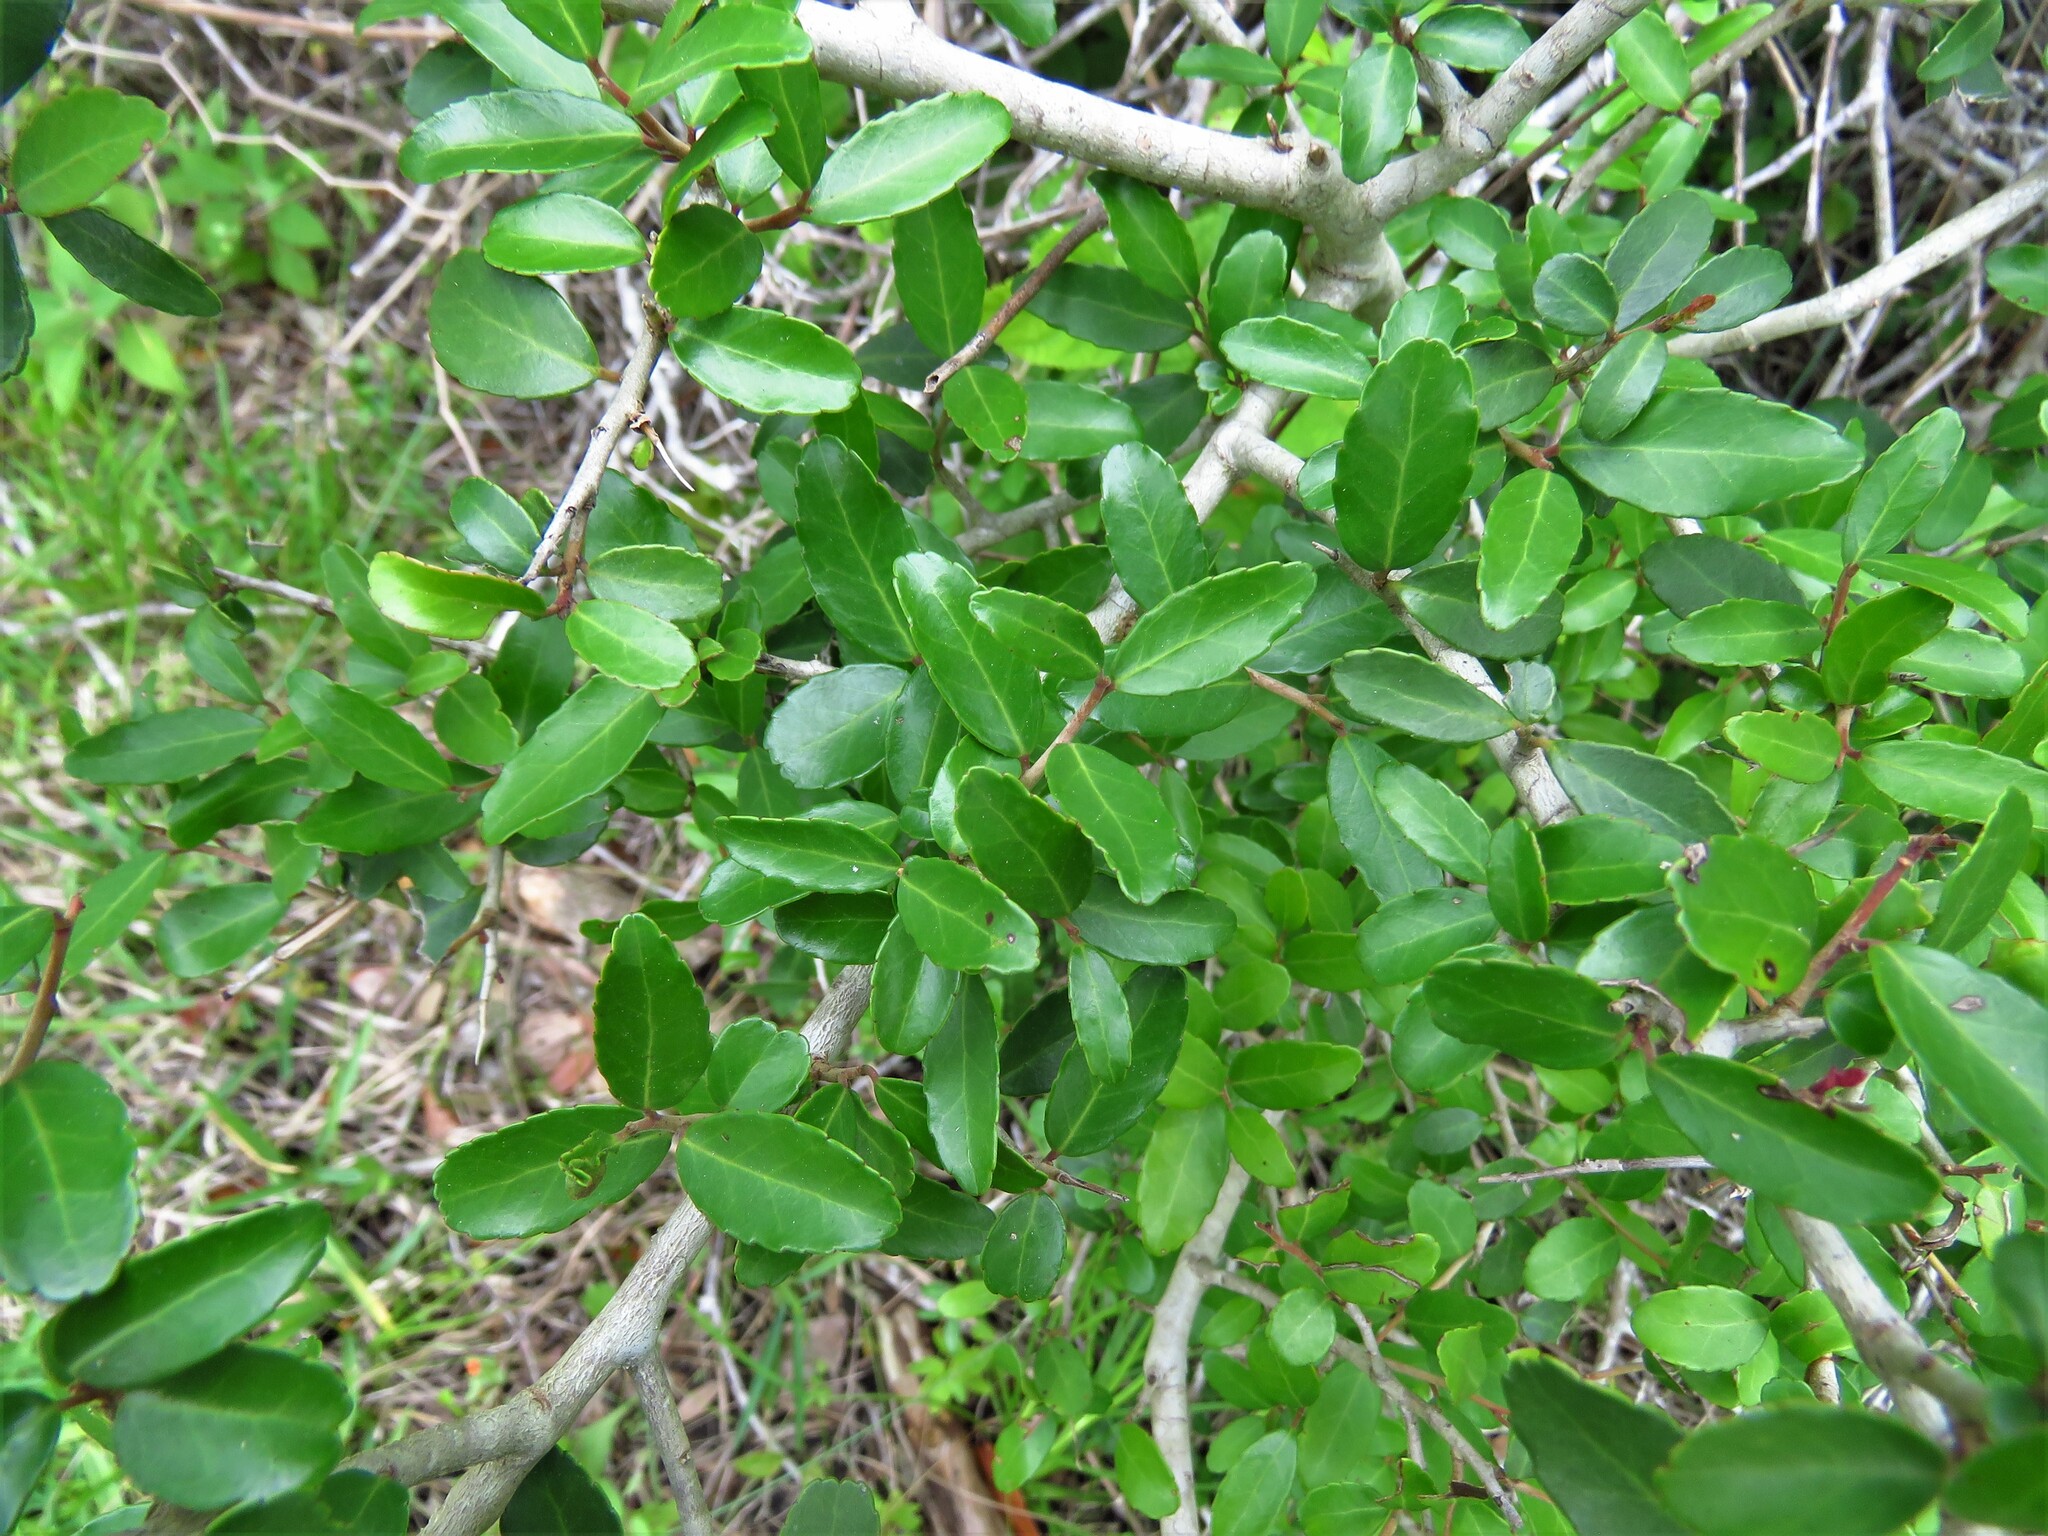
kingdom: Plantae
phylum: Tracheophyta
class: Magnoliopsida
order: Aquifoliales
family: Aquifoliaceae
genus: Ilex
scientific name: Ilex vomitoria
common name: Yaupon holly
